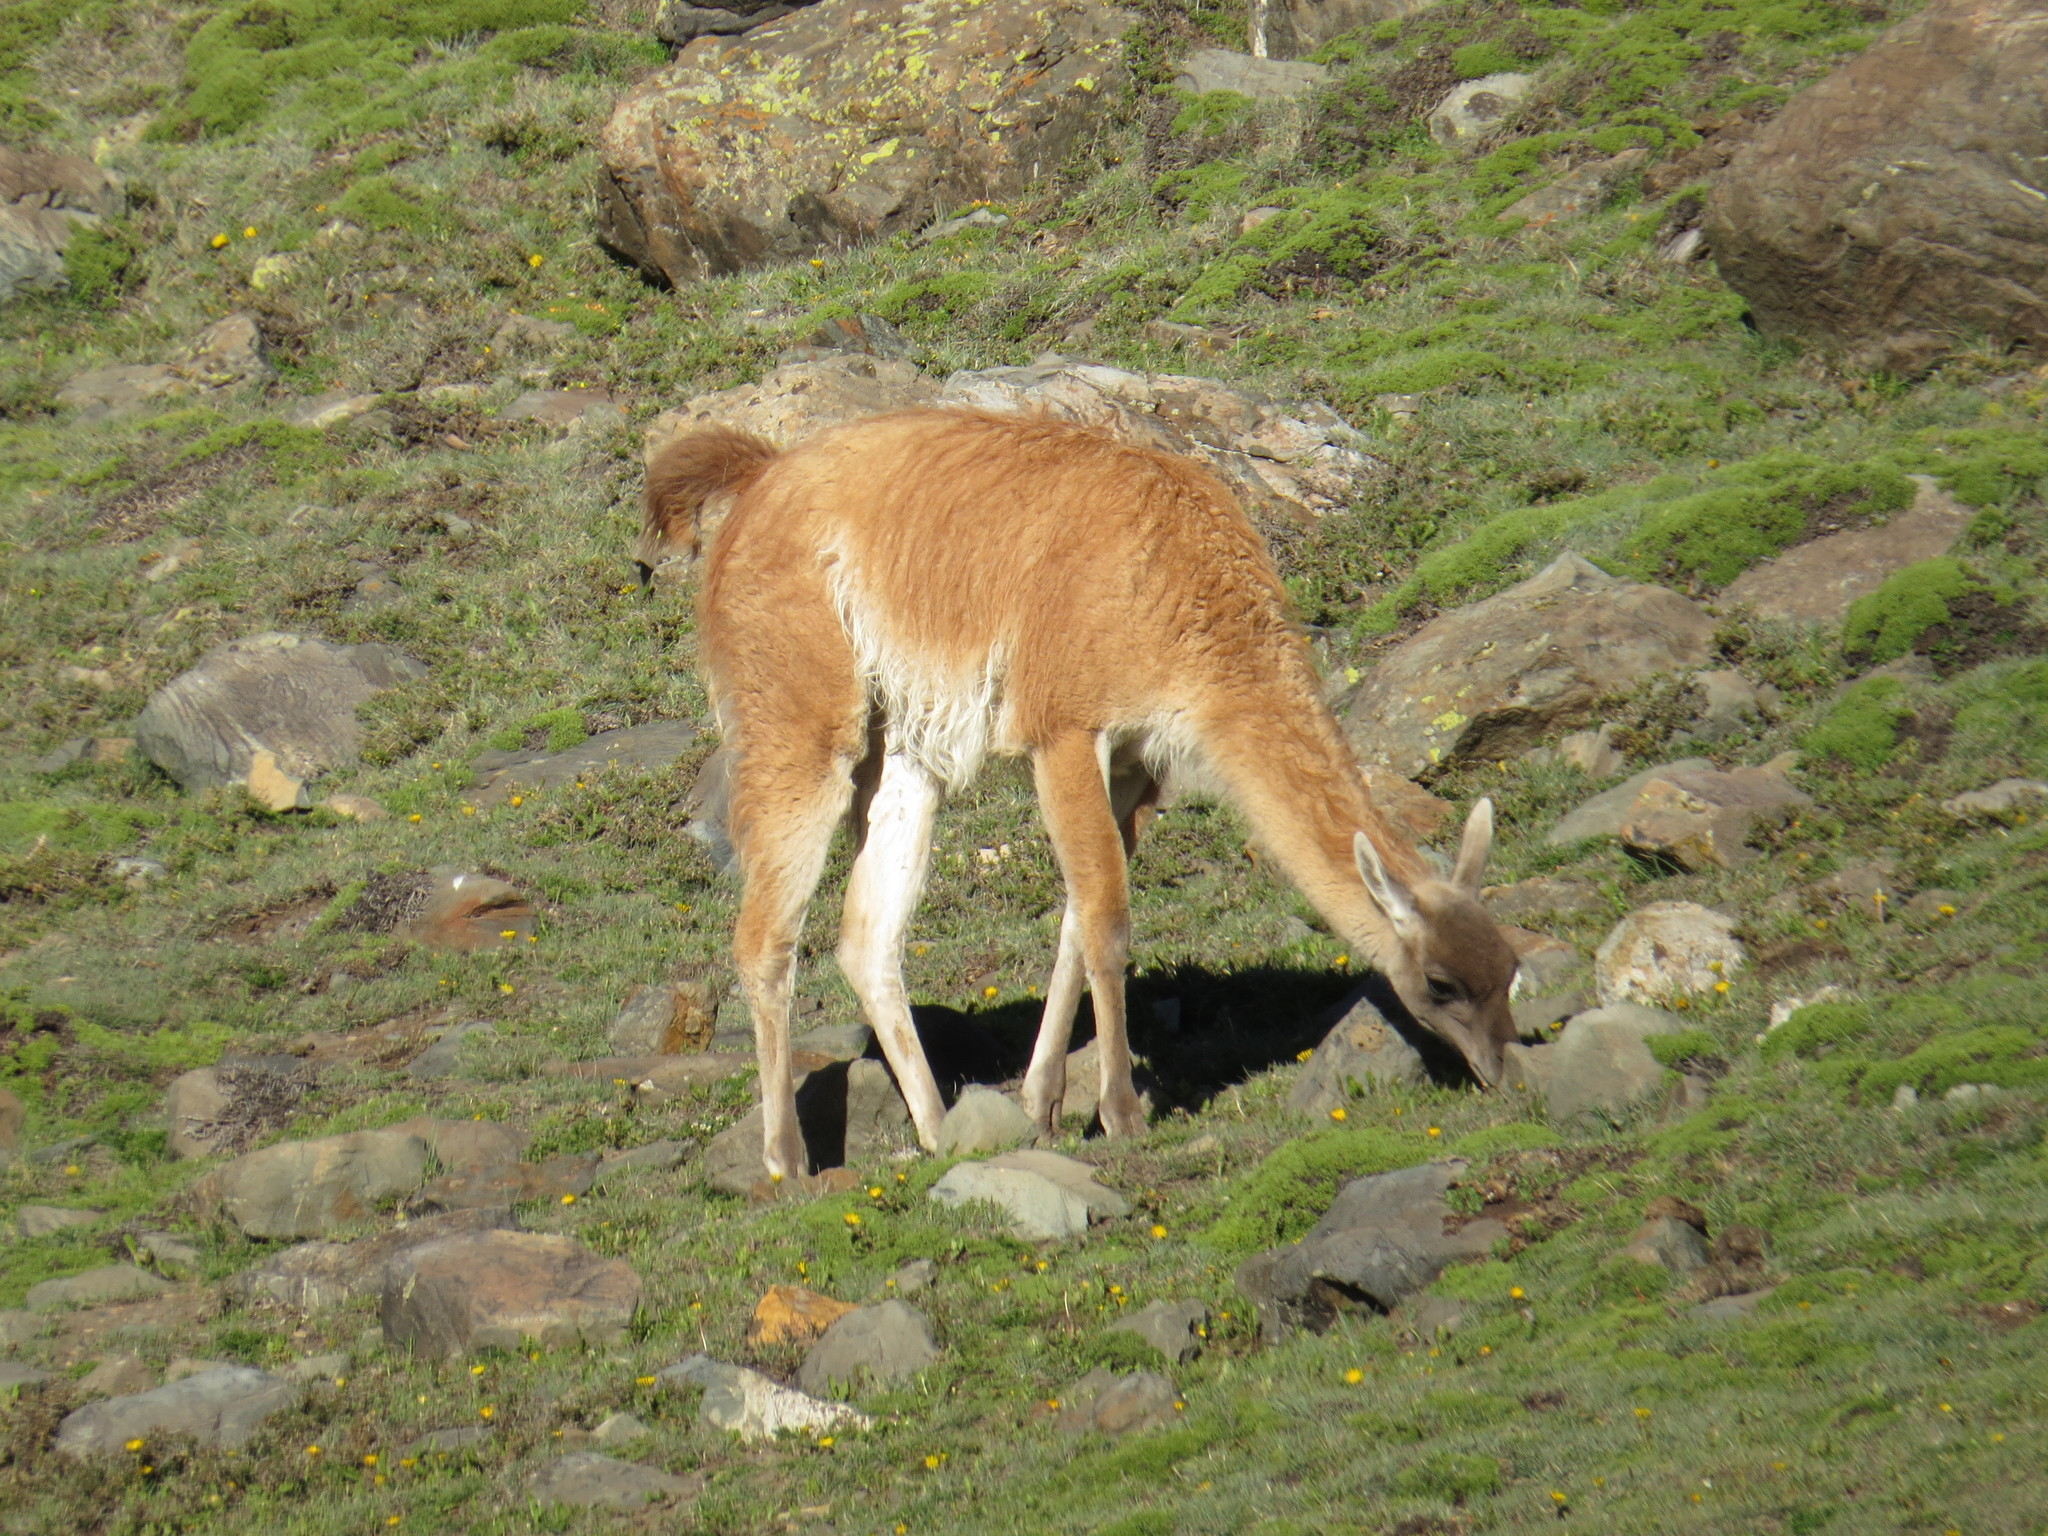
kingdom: Animalia
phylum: Chordata
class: Mammalia
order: Artiodactyla
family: Camelidae
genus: Lama
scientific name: Lama glama
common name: Llama
